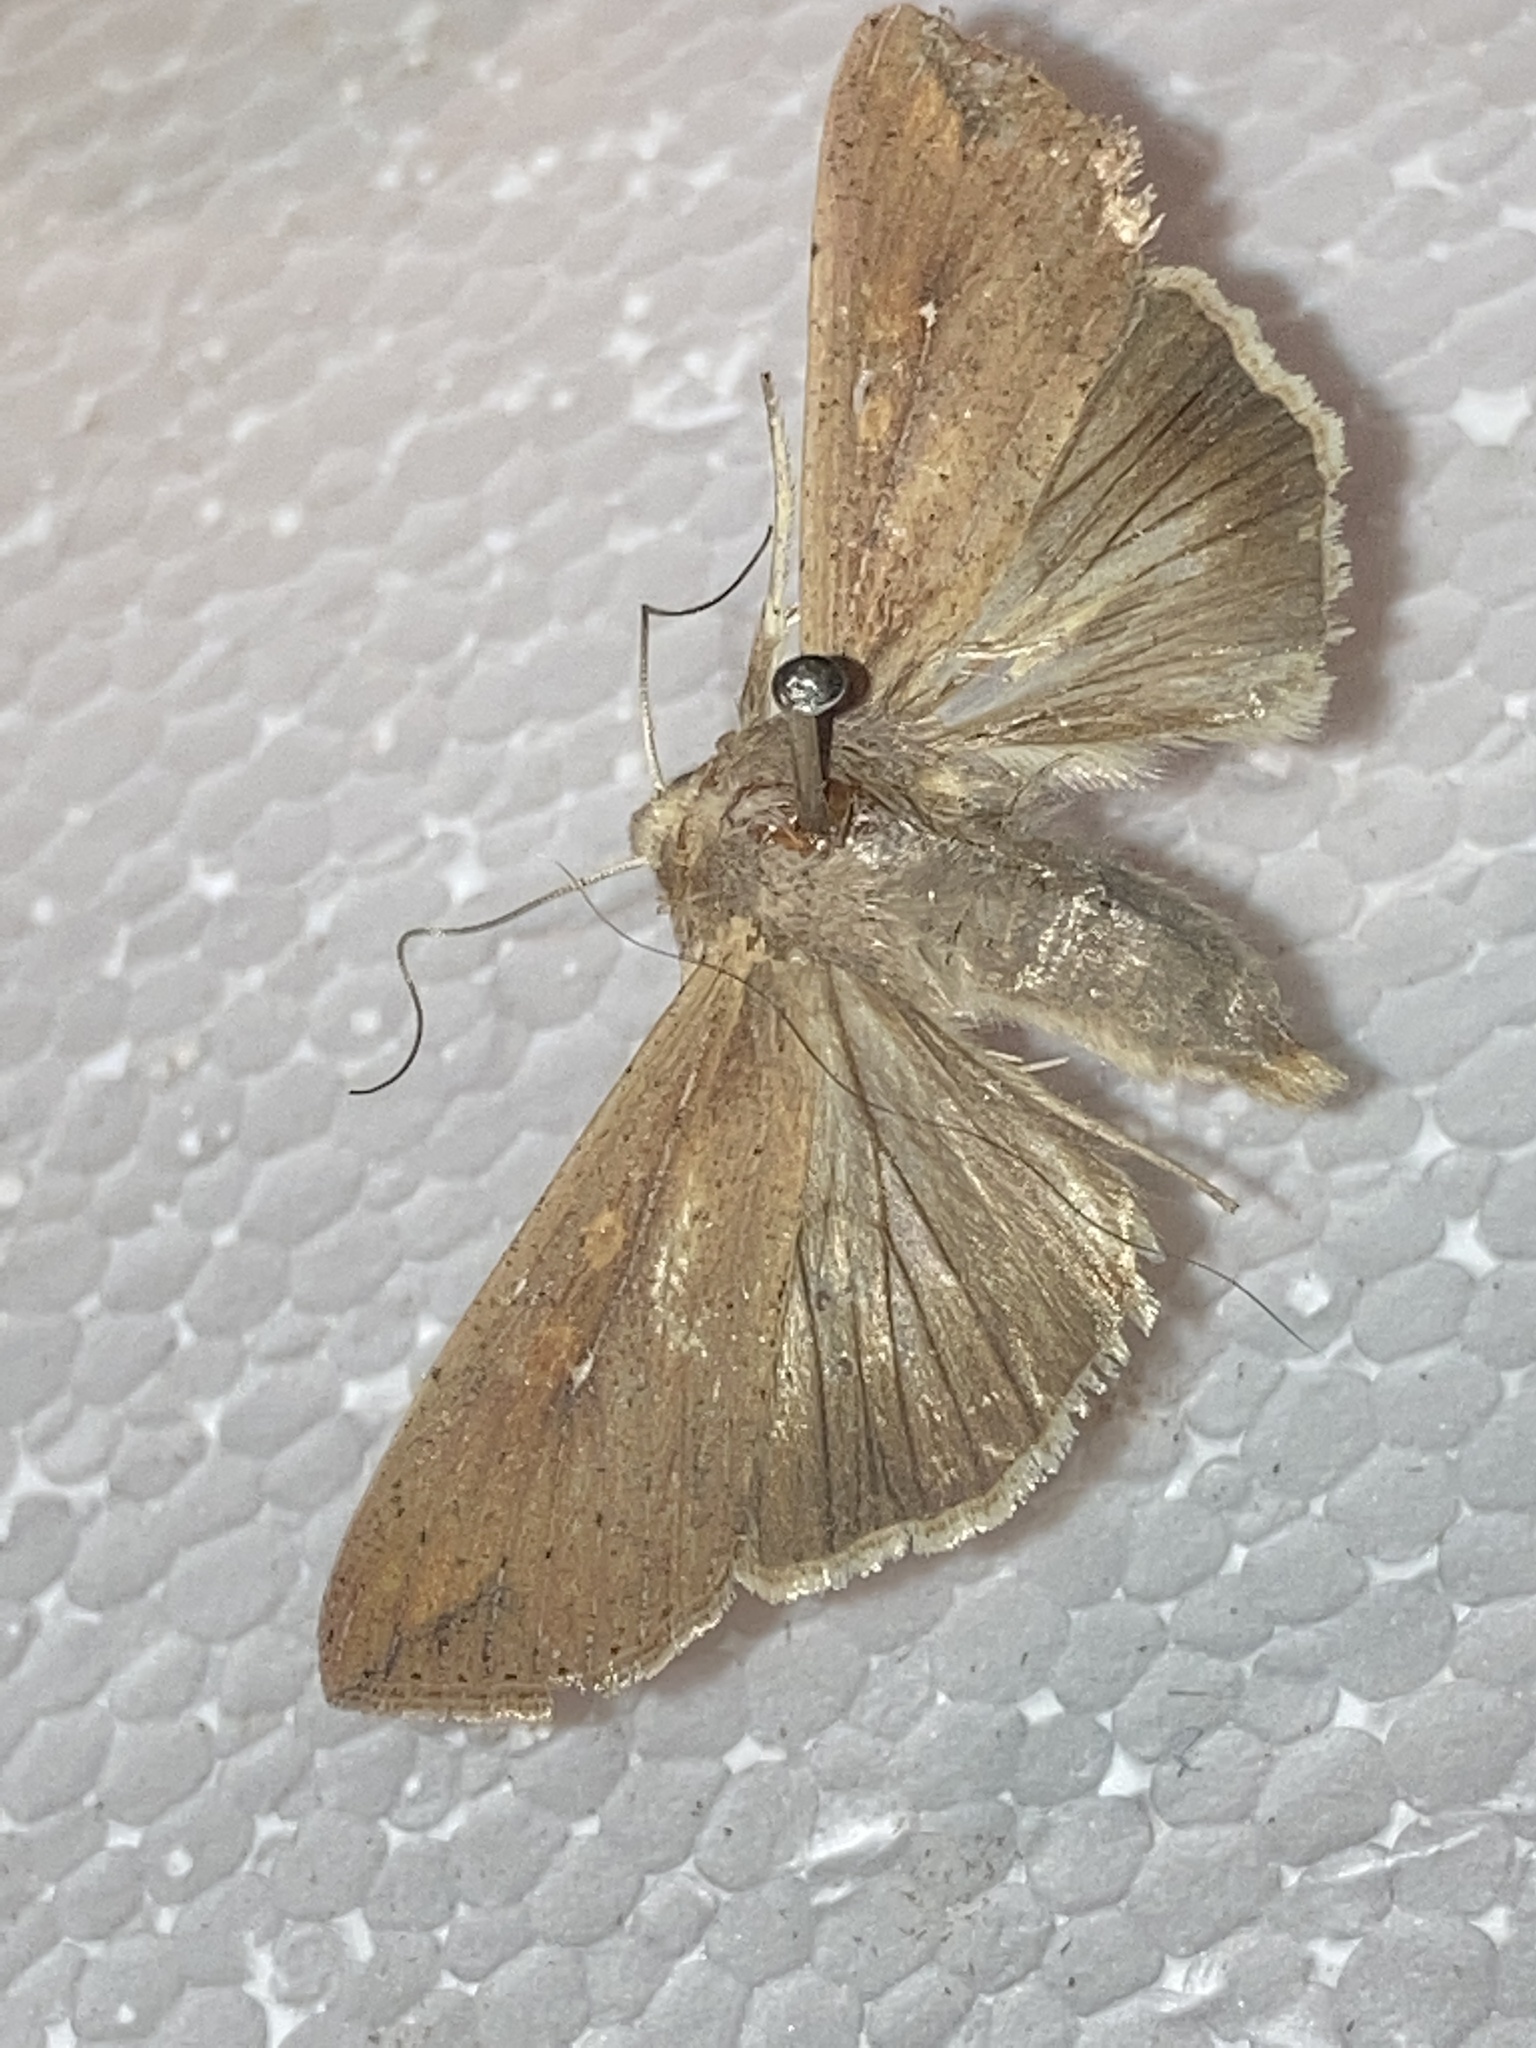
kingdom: Animalia
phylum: Arthropoda
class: Insecta
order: Lepidoptera
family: Noctuidae
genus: Mythimna
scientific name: Mythimna unipuncta
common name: White-speck
